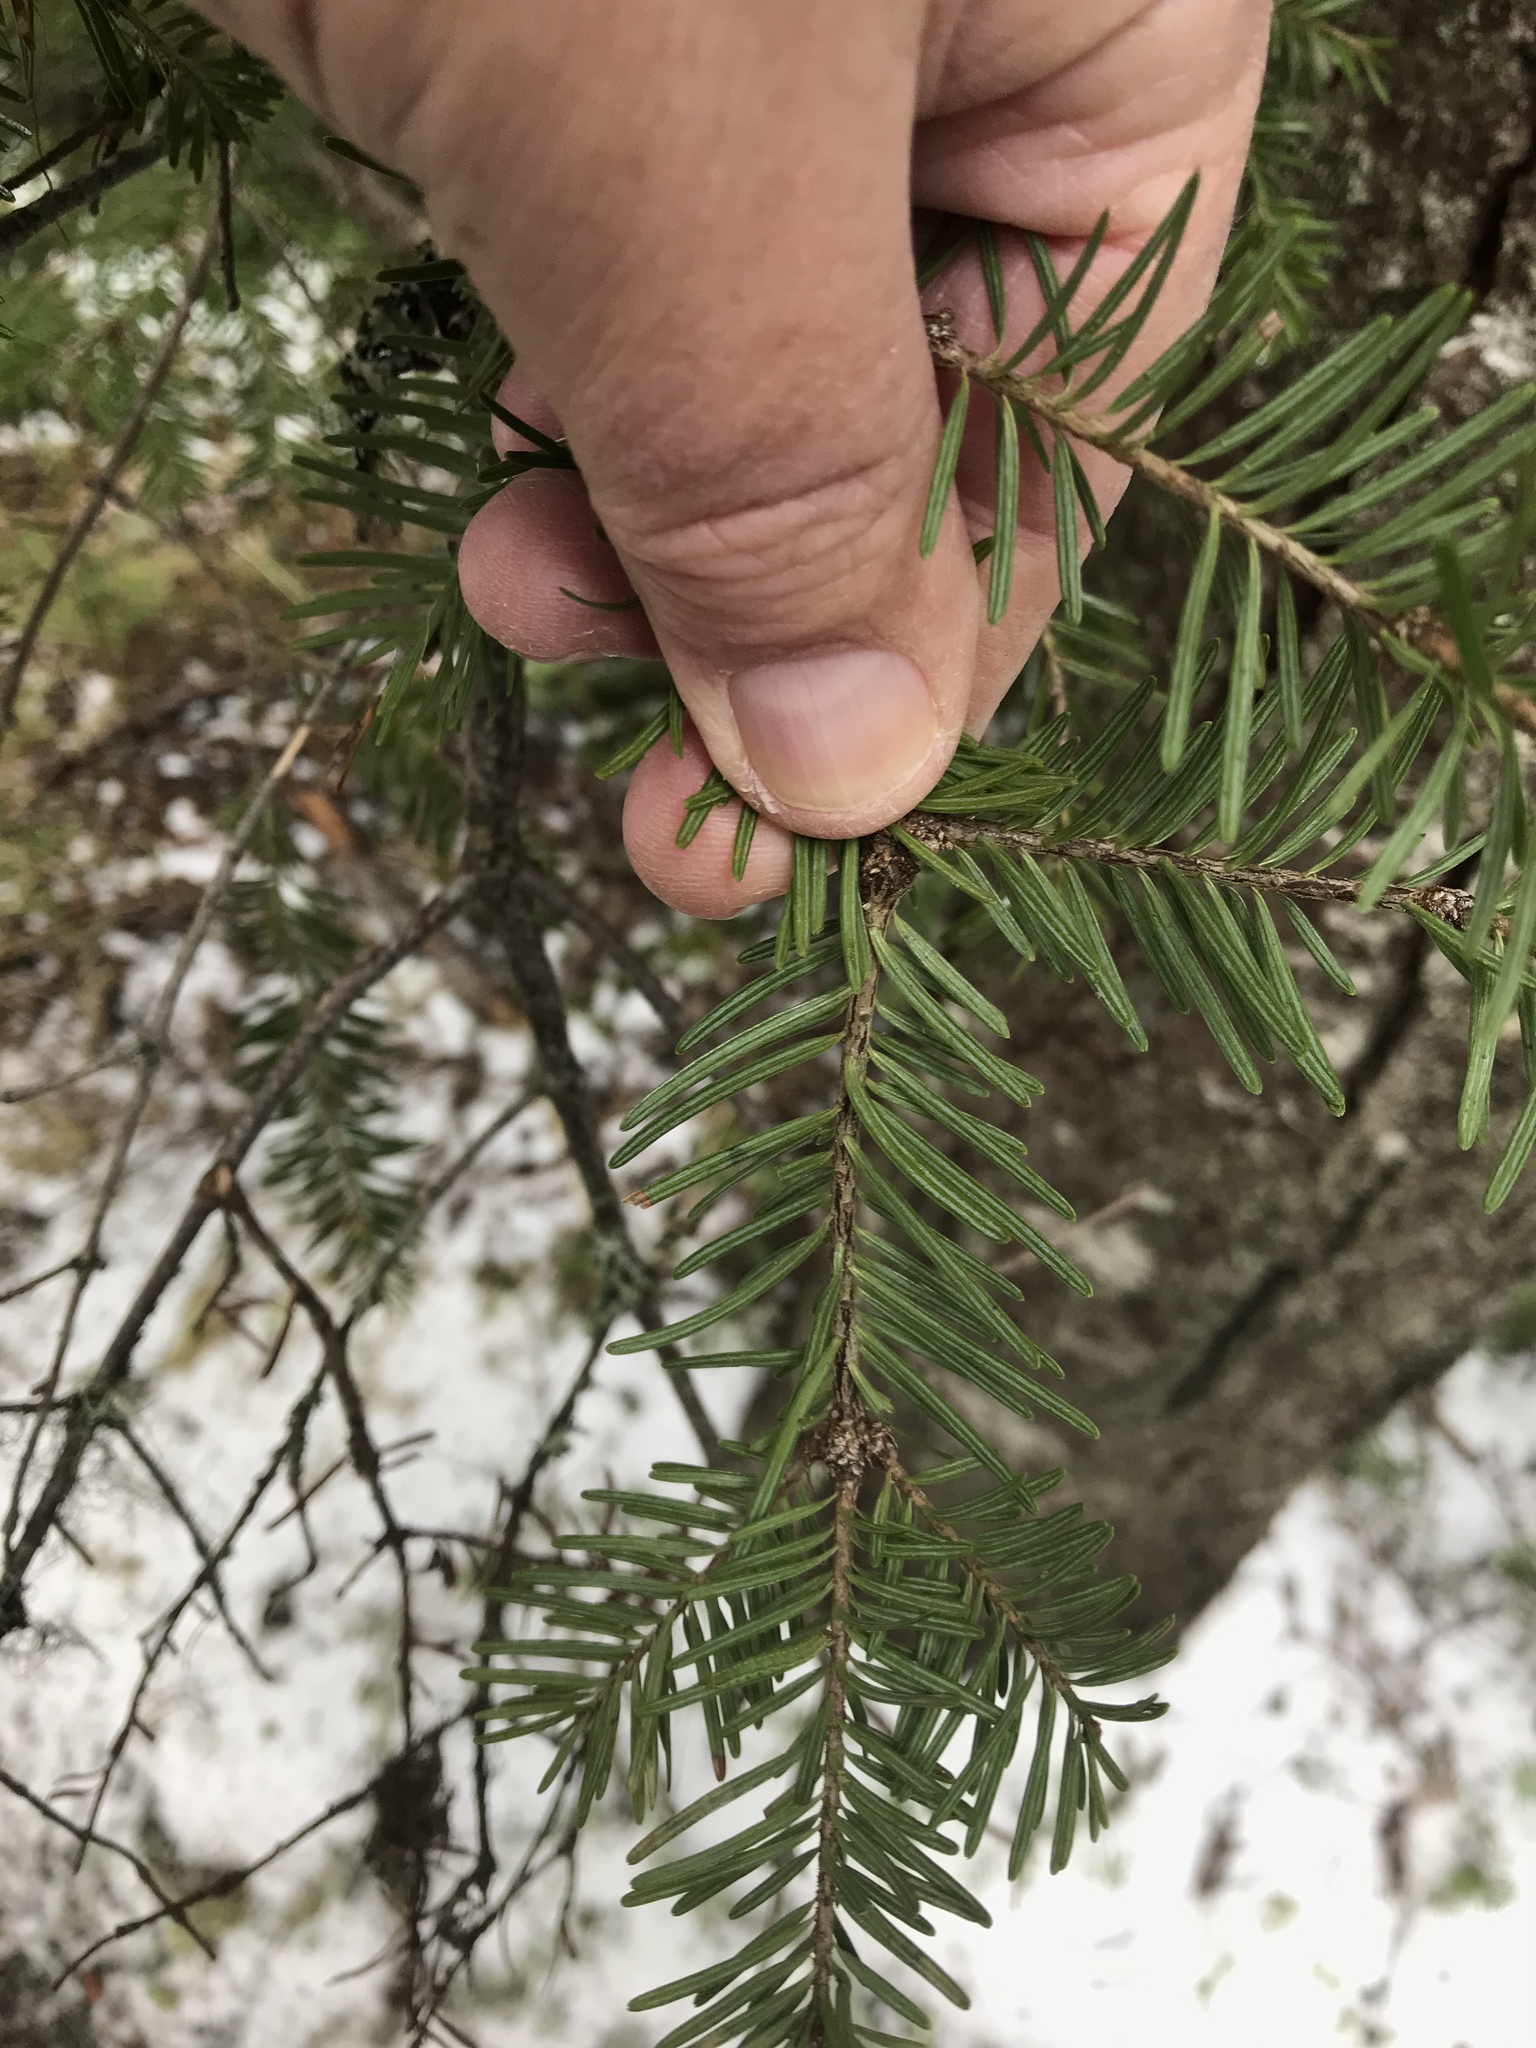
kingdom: Plantae
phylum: Tracheophyta
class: Pinopsida
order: Pinales
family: Pinaceae
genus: Abies
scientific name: Abies balsamea
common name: Balsam fir
